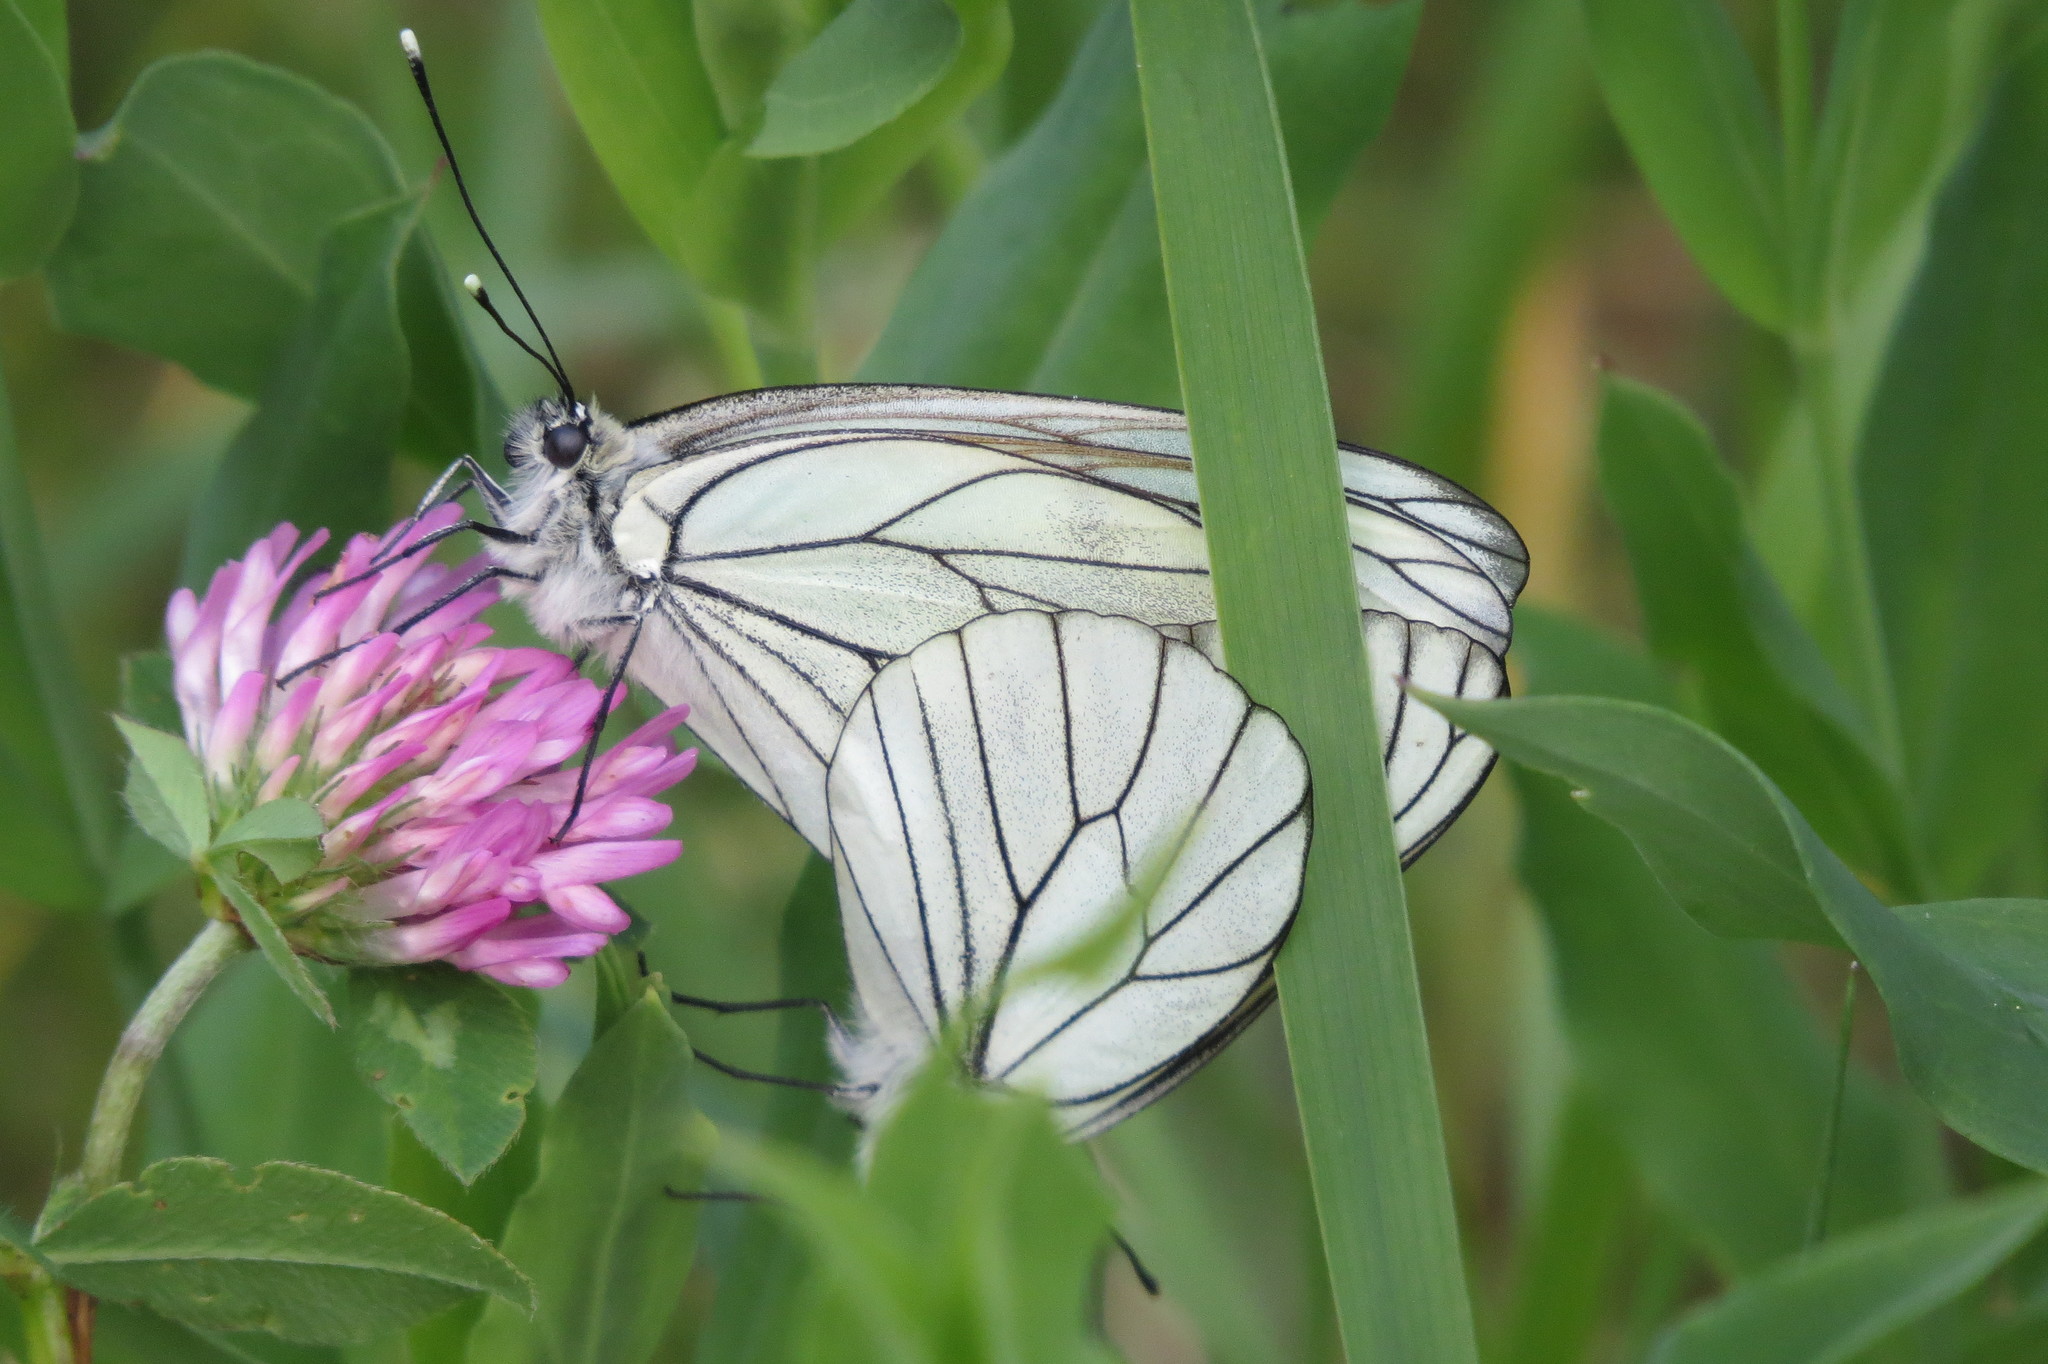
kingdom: Animalia
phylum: Arthropoda
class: Insecta
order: Lepidoptera
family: Pieridae
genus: Aporia
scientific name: Aporia crataegi
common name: Black-veined white
